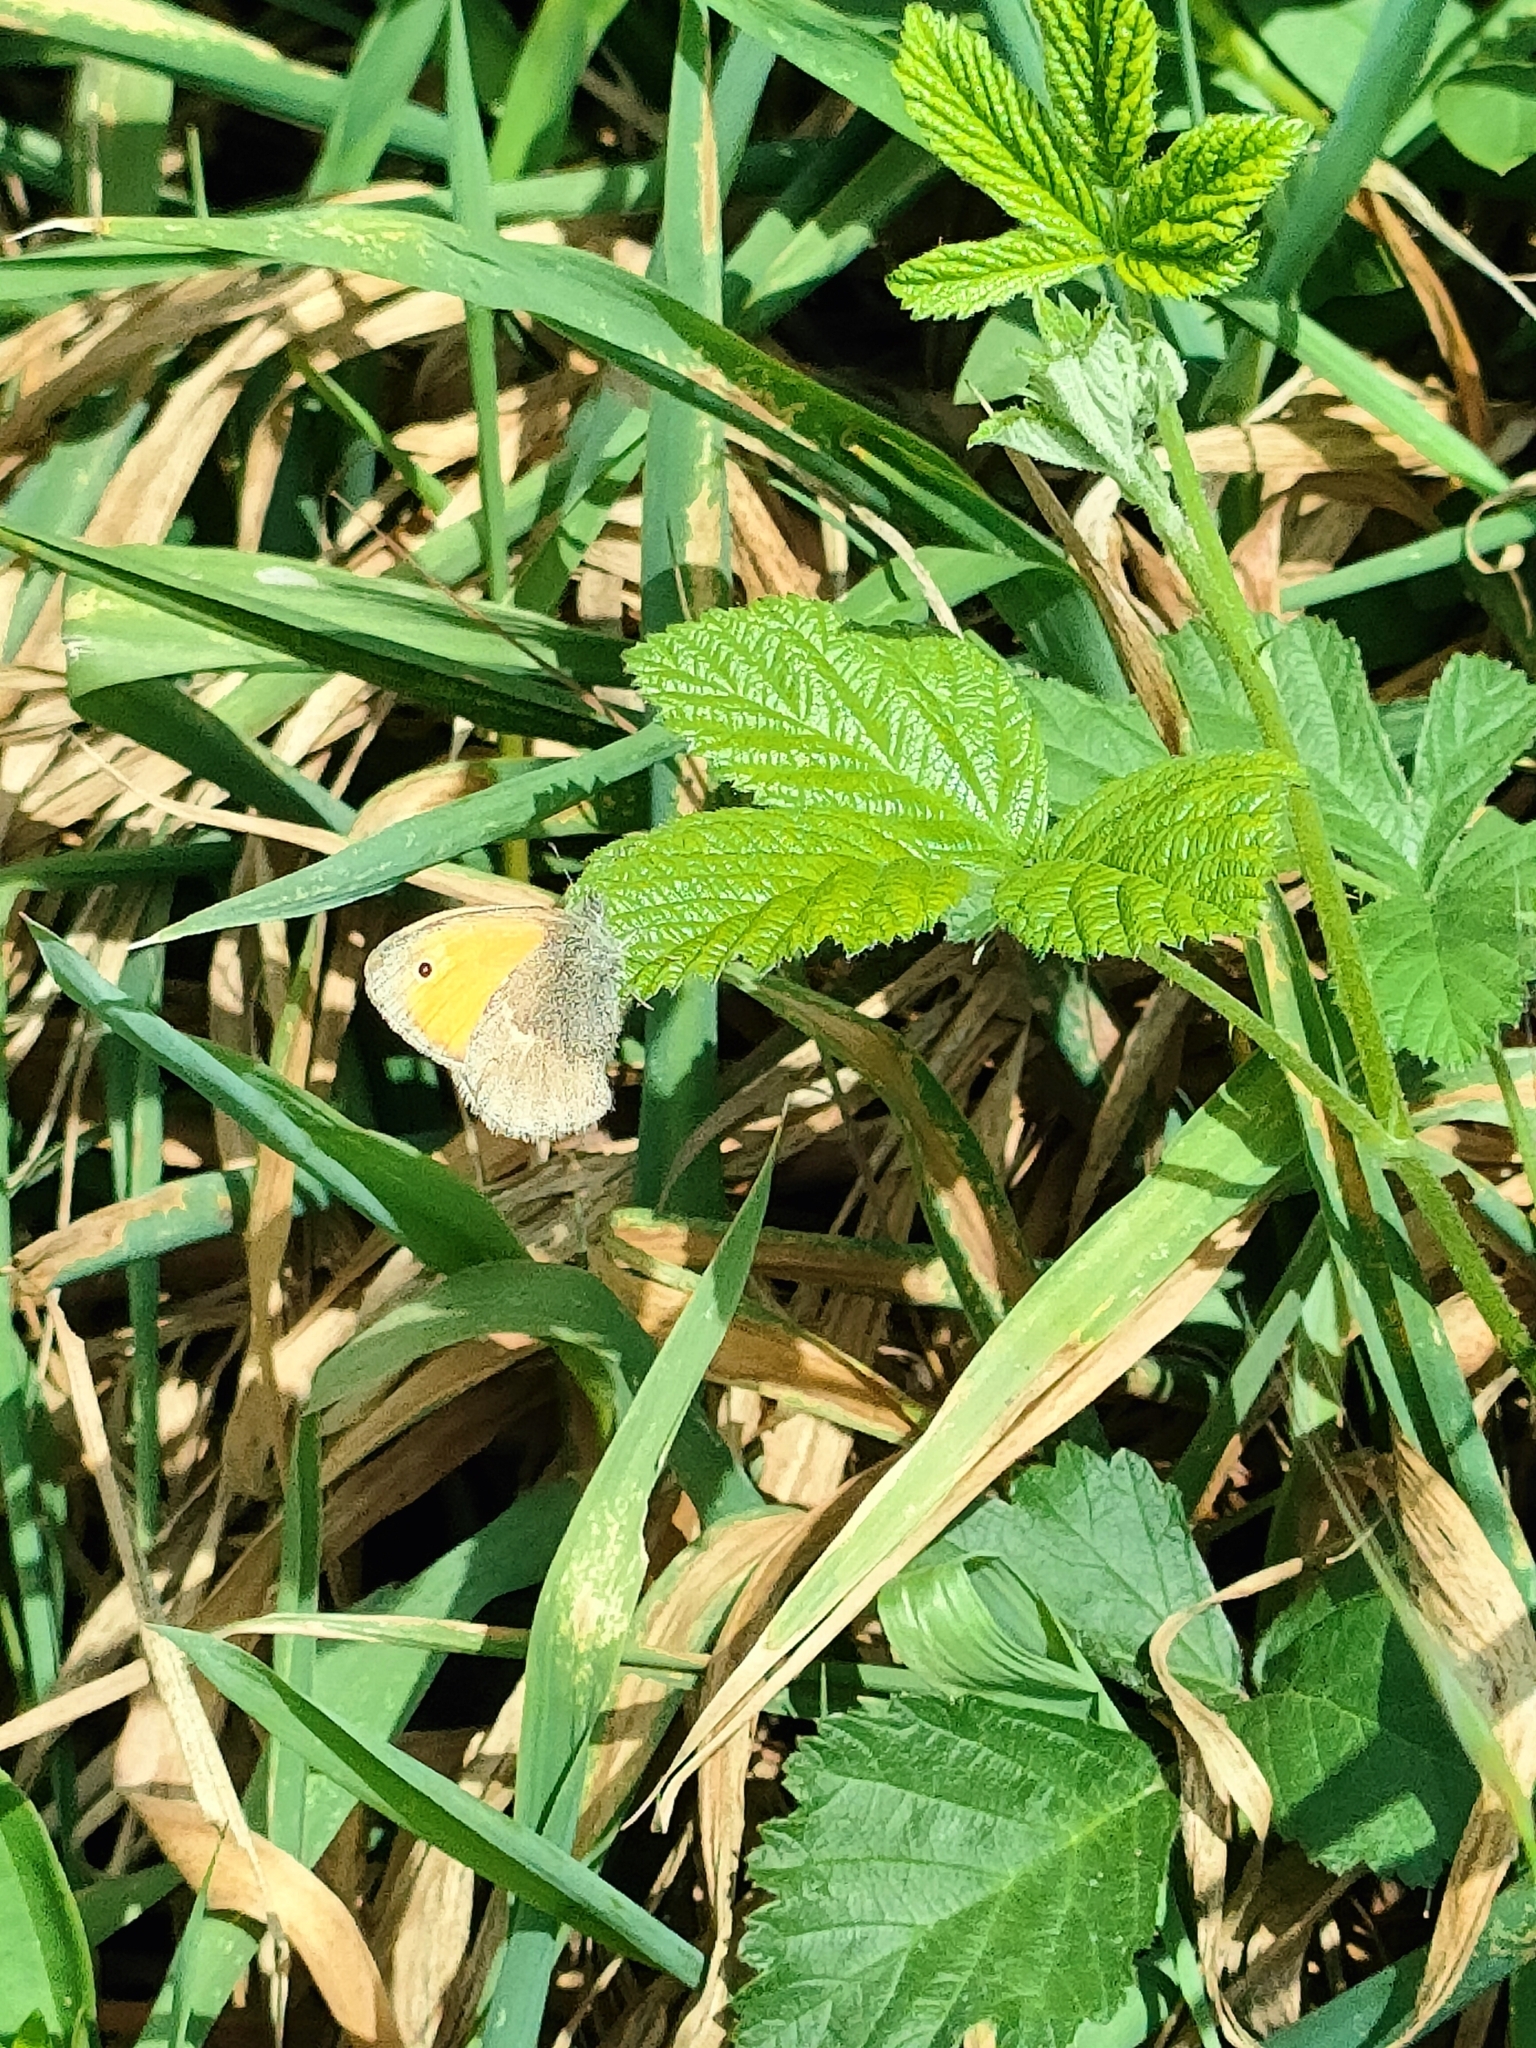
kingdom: Animalia
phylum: Arthropoda
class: Insecta
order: Lepidoptera
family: Nymphalidae
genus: Coenonympha
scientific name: Coenonympha pamphilus
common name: Small heath
